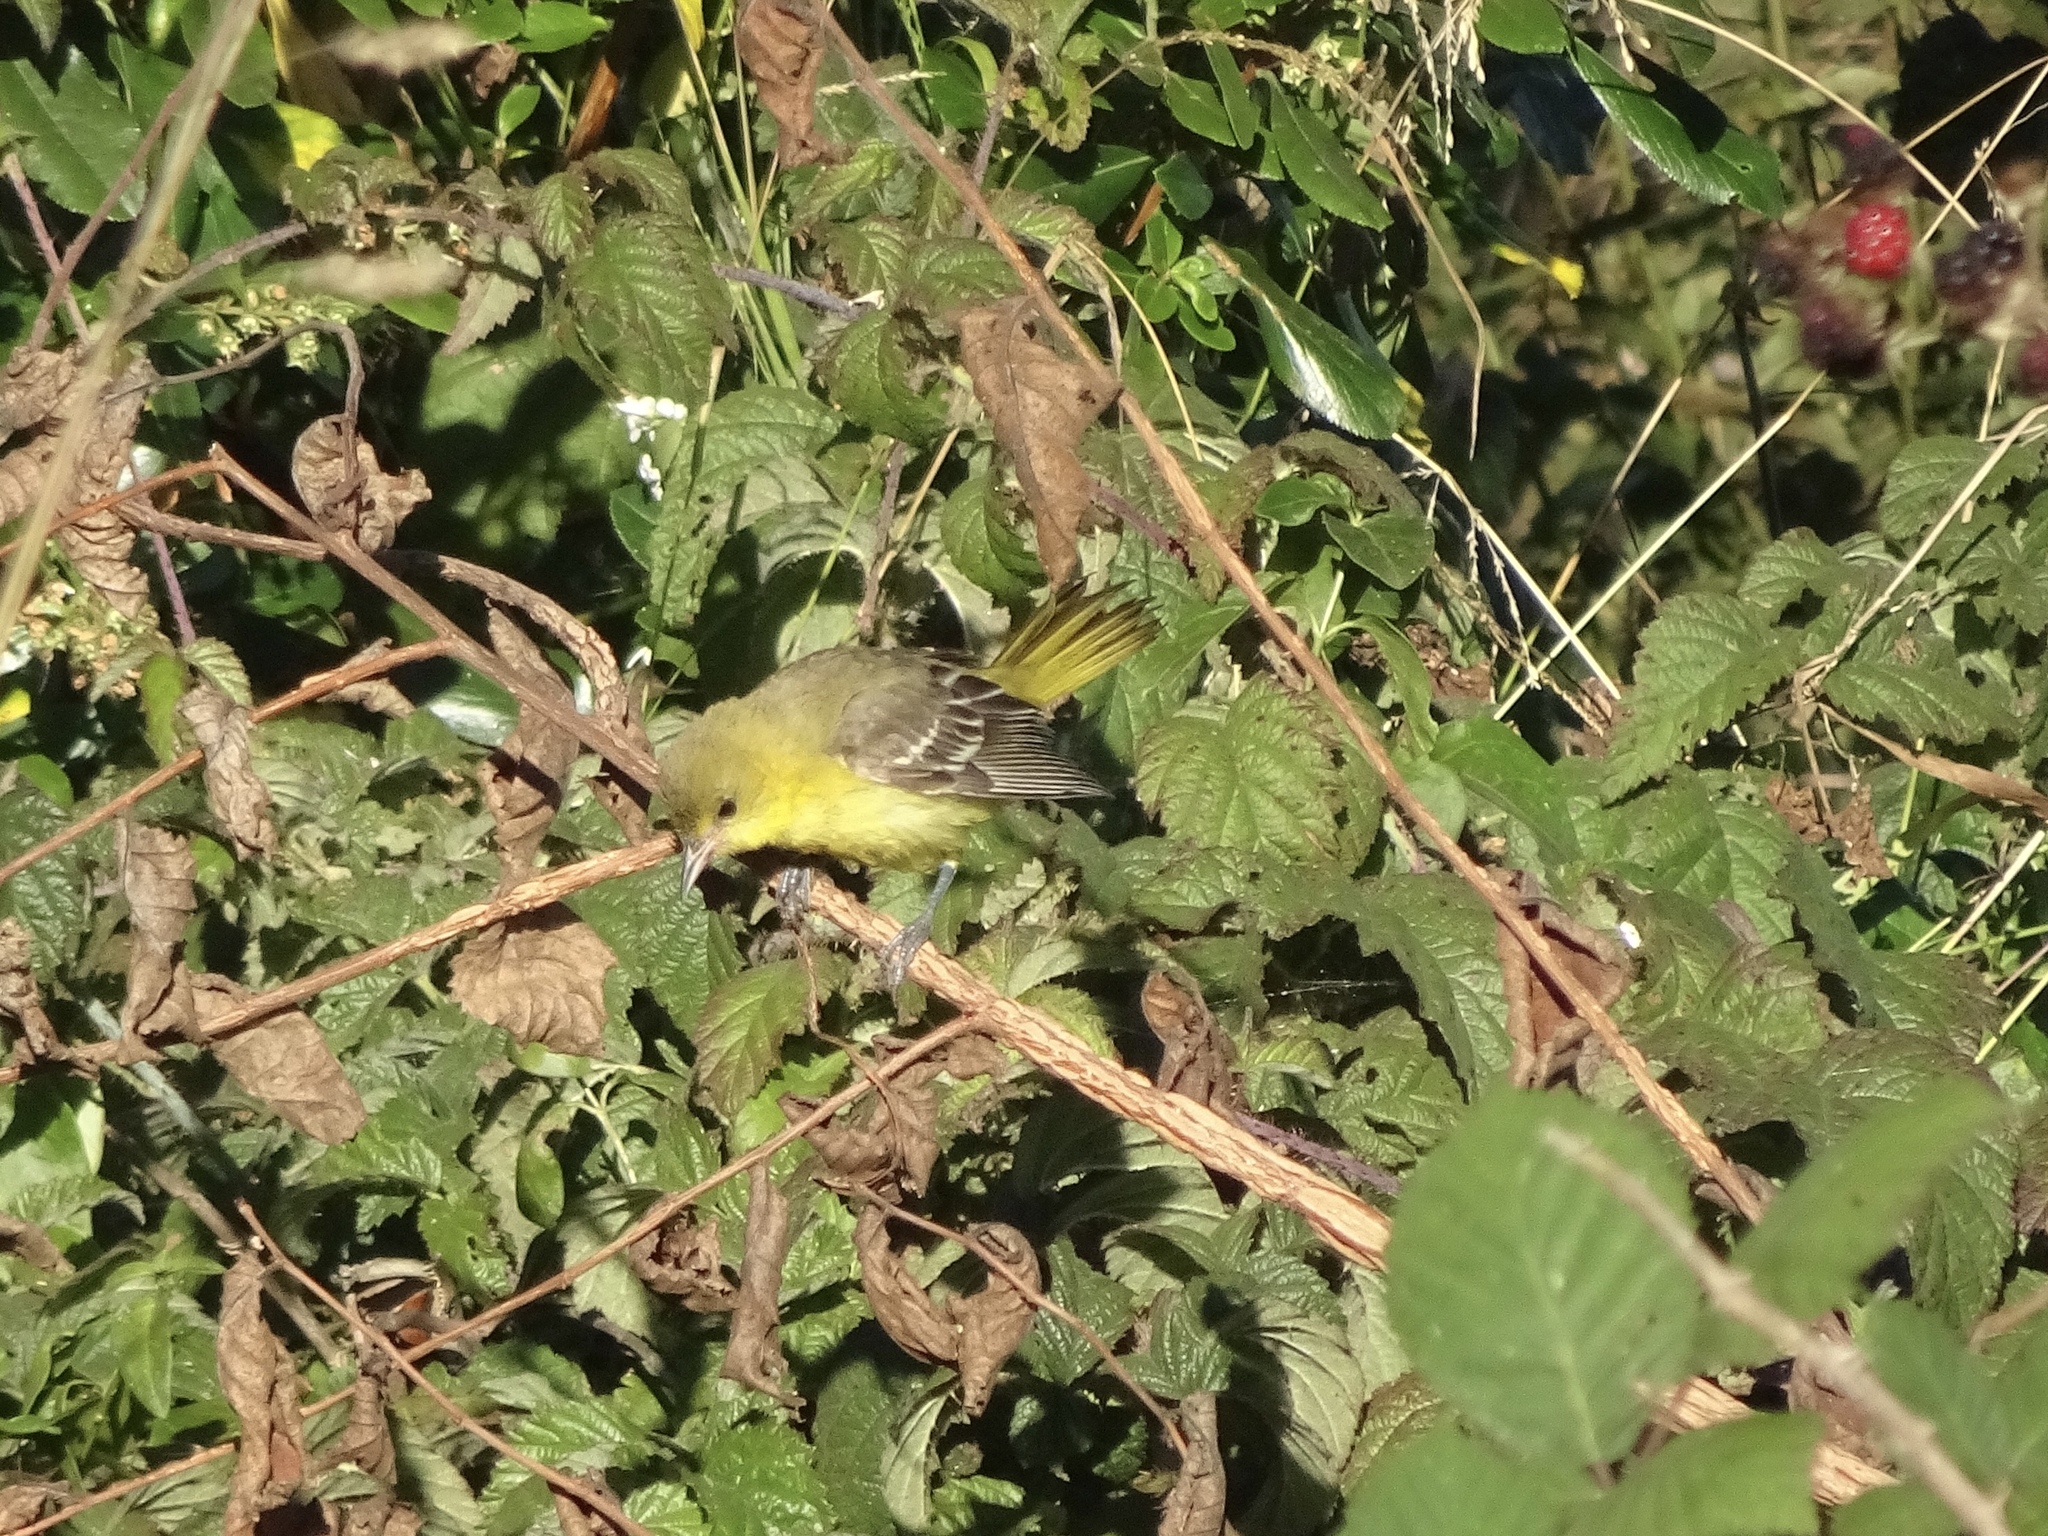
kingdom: Animalia
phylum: Chordata
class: Aves
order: Passeriformes
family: Icteridae
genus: Icterus
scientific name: Icterus spurius
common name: Orchard oriole
